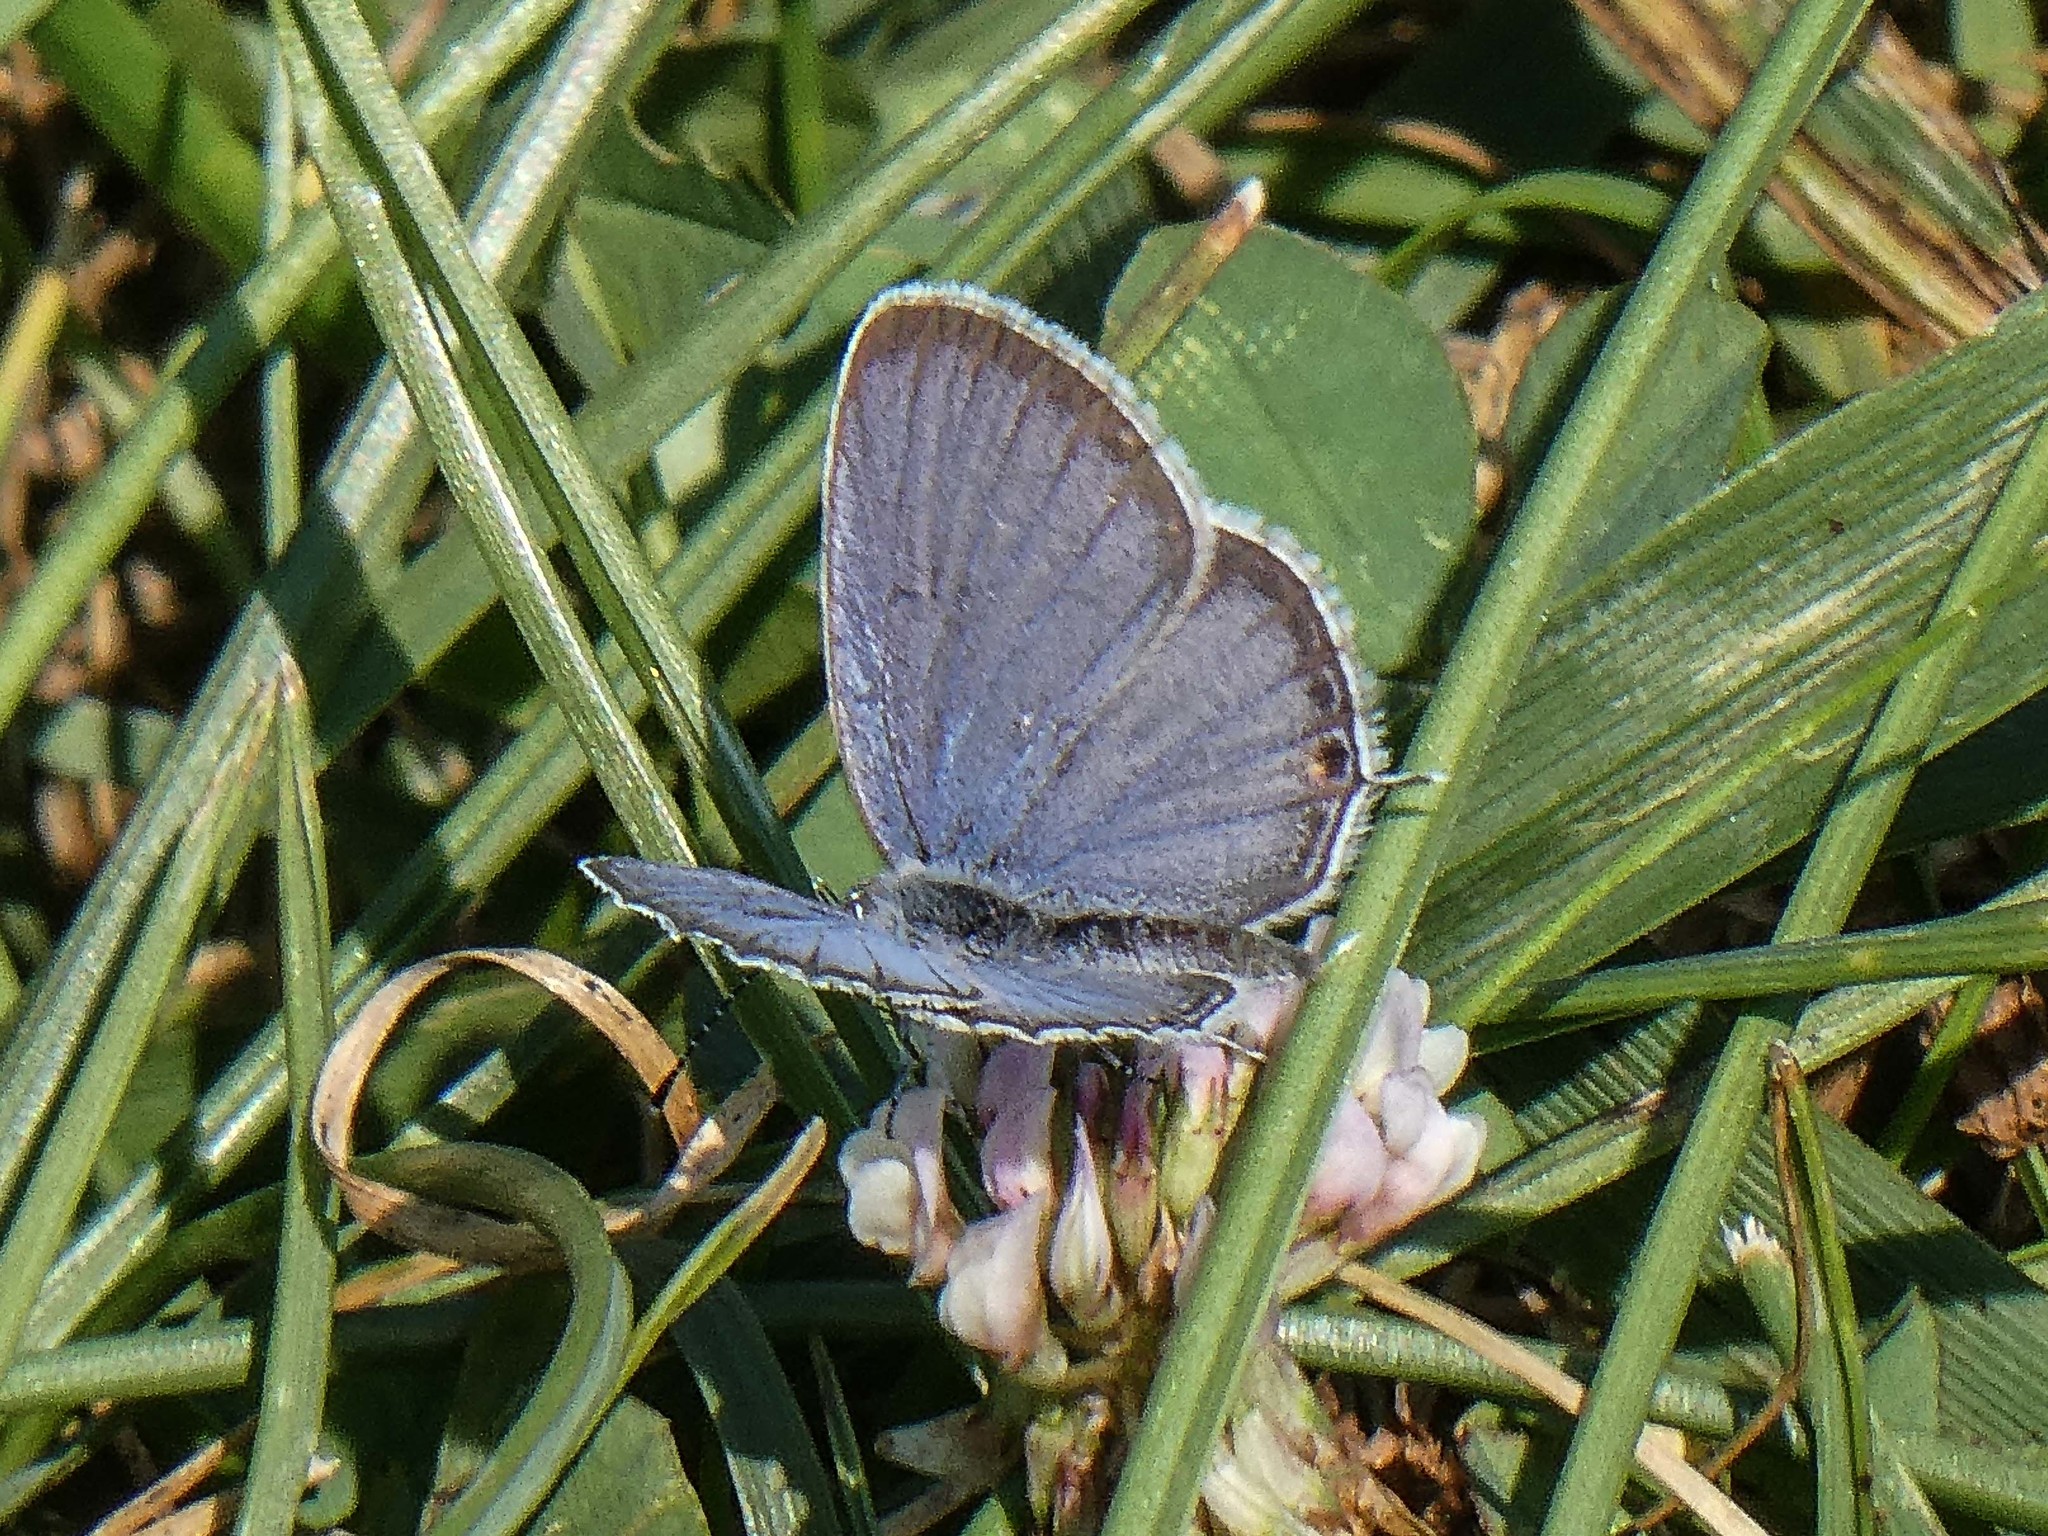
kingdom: Animalia
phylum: Arthropoda
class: Insecta
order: Lepidoptera
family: Lycaenidae
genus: Elkalyce
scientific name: Elkalyce comyntas
